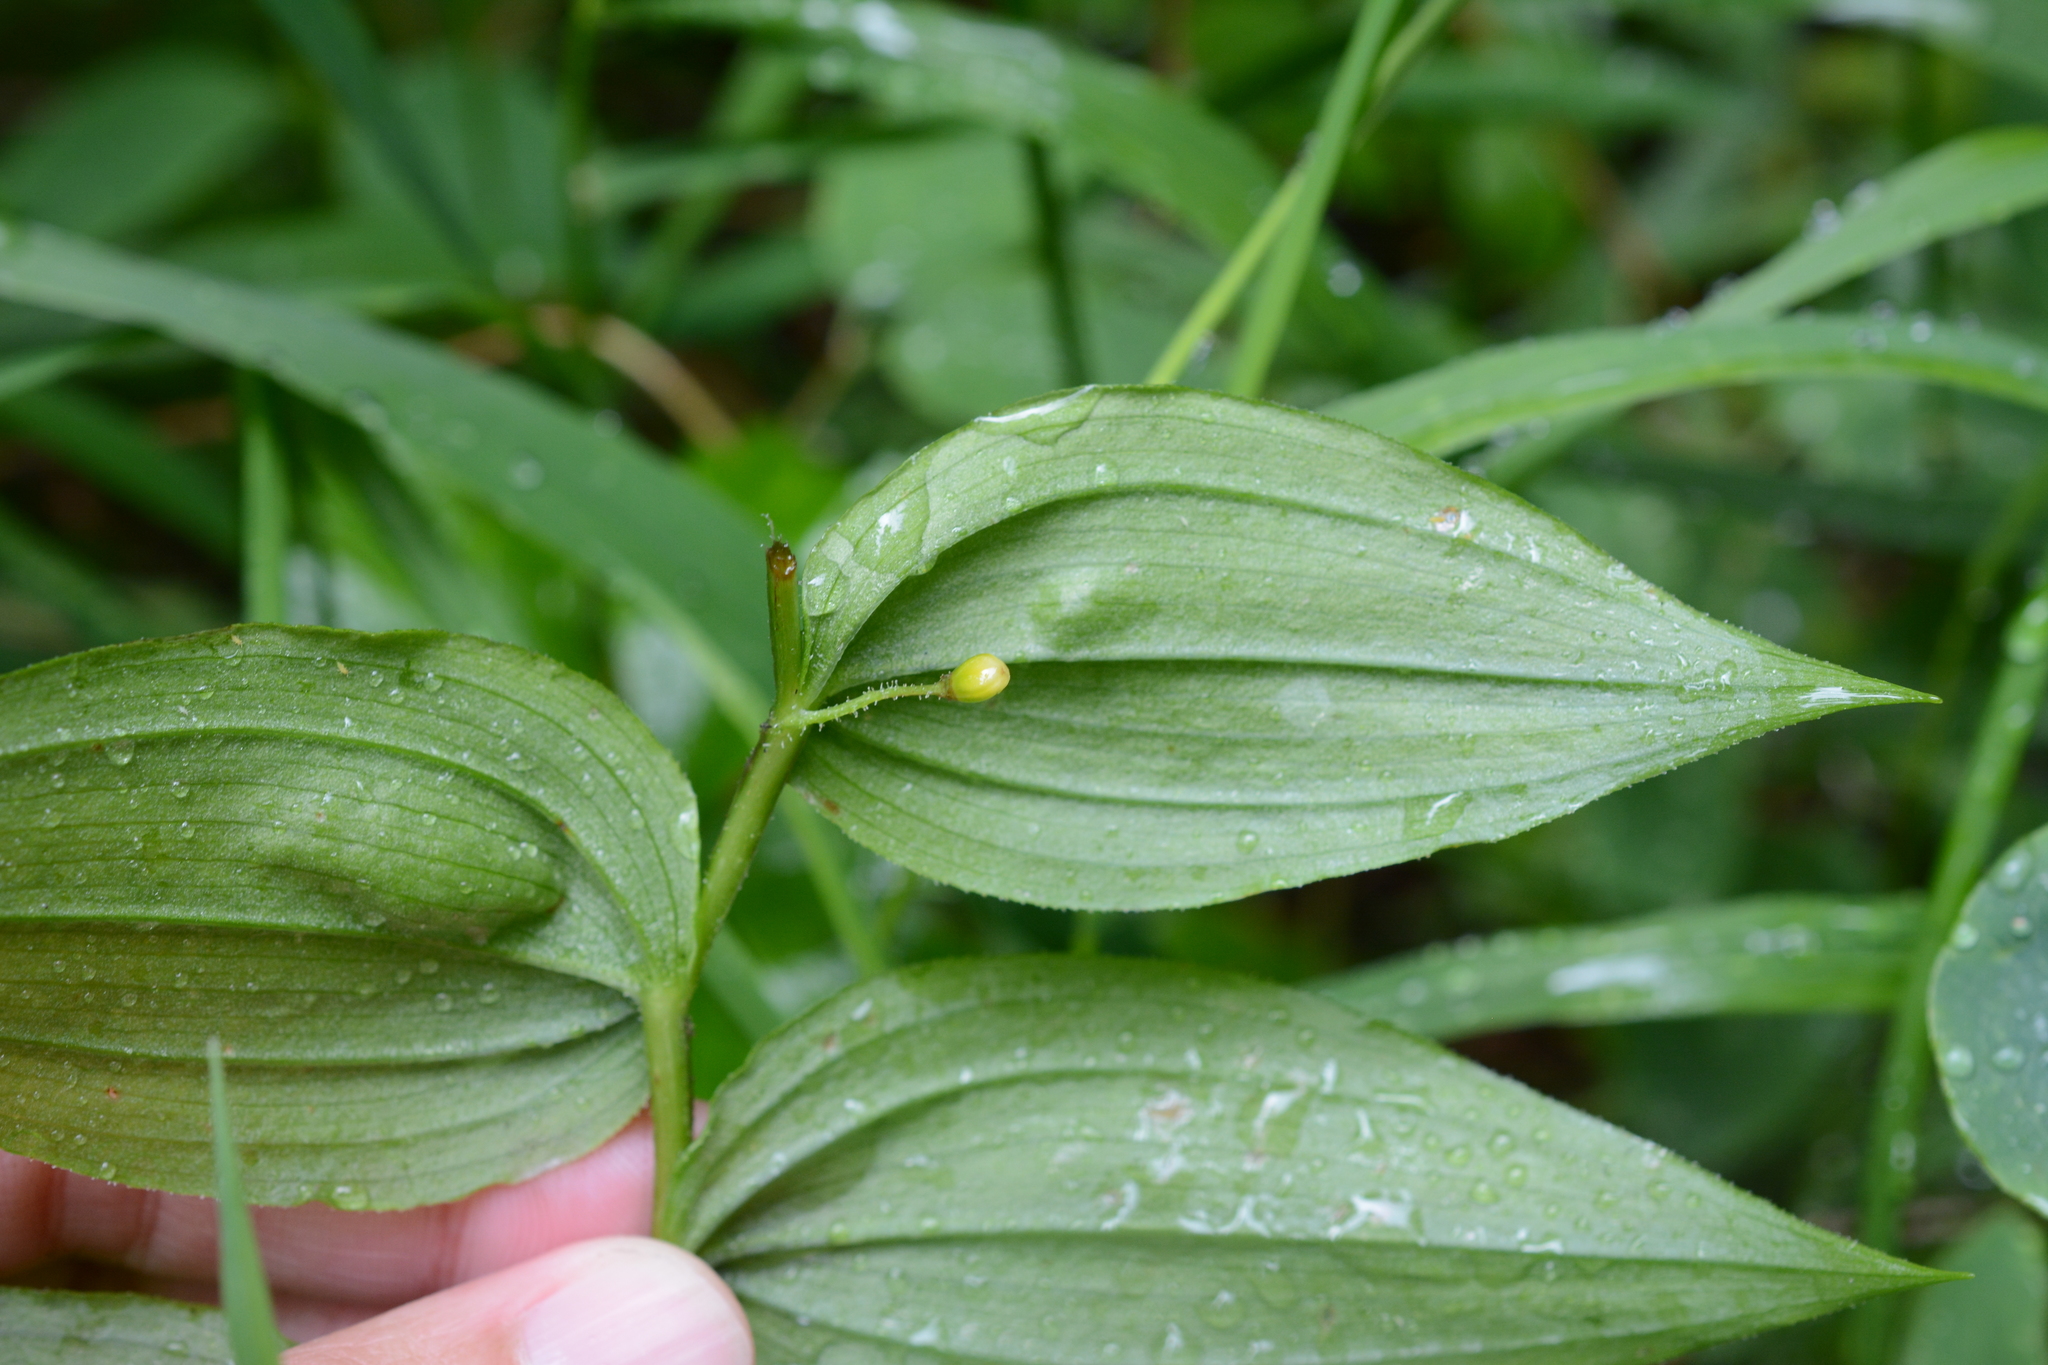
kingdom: Plantae
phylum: Tracheophyta
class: Liliopsida
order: Liliales
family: Liliaceae
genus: Streptopus
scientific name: Streptopus lanceolatus
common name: Rose mandarin
